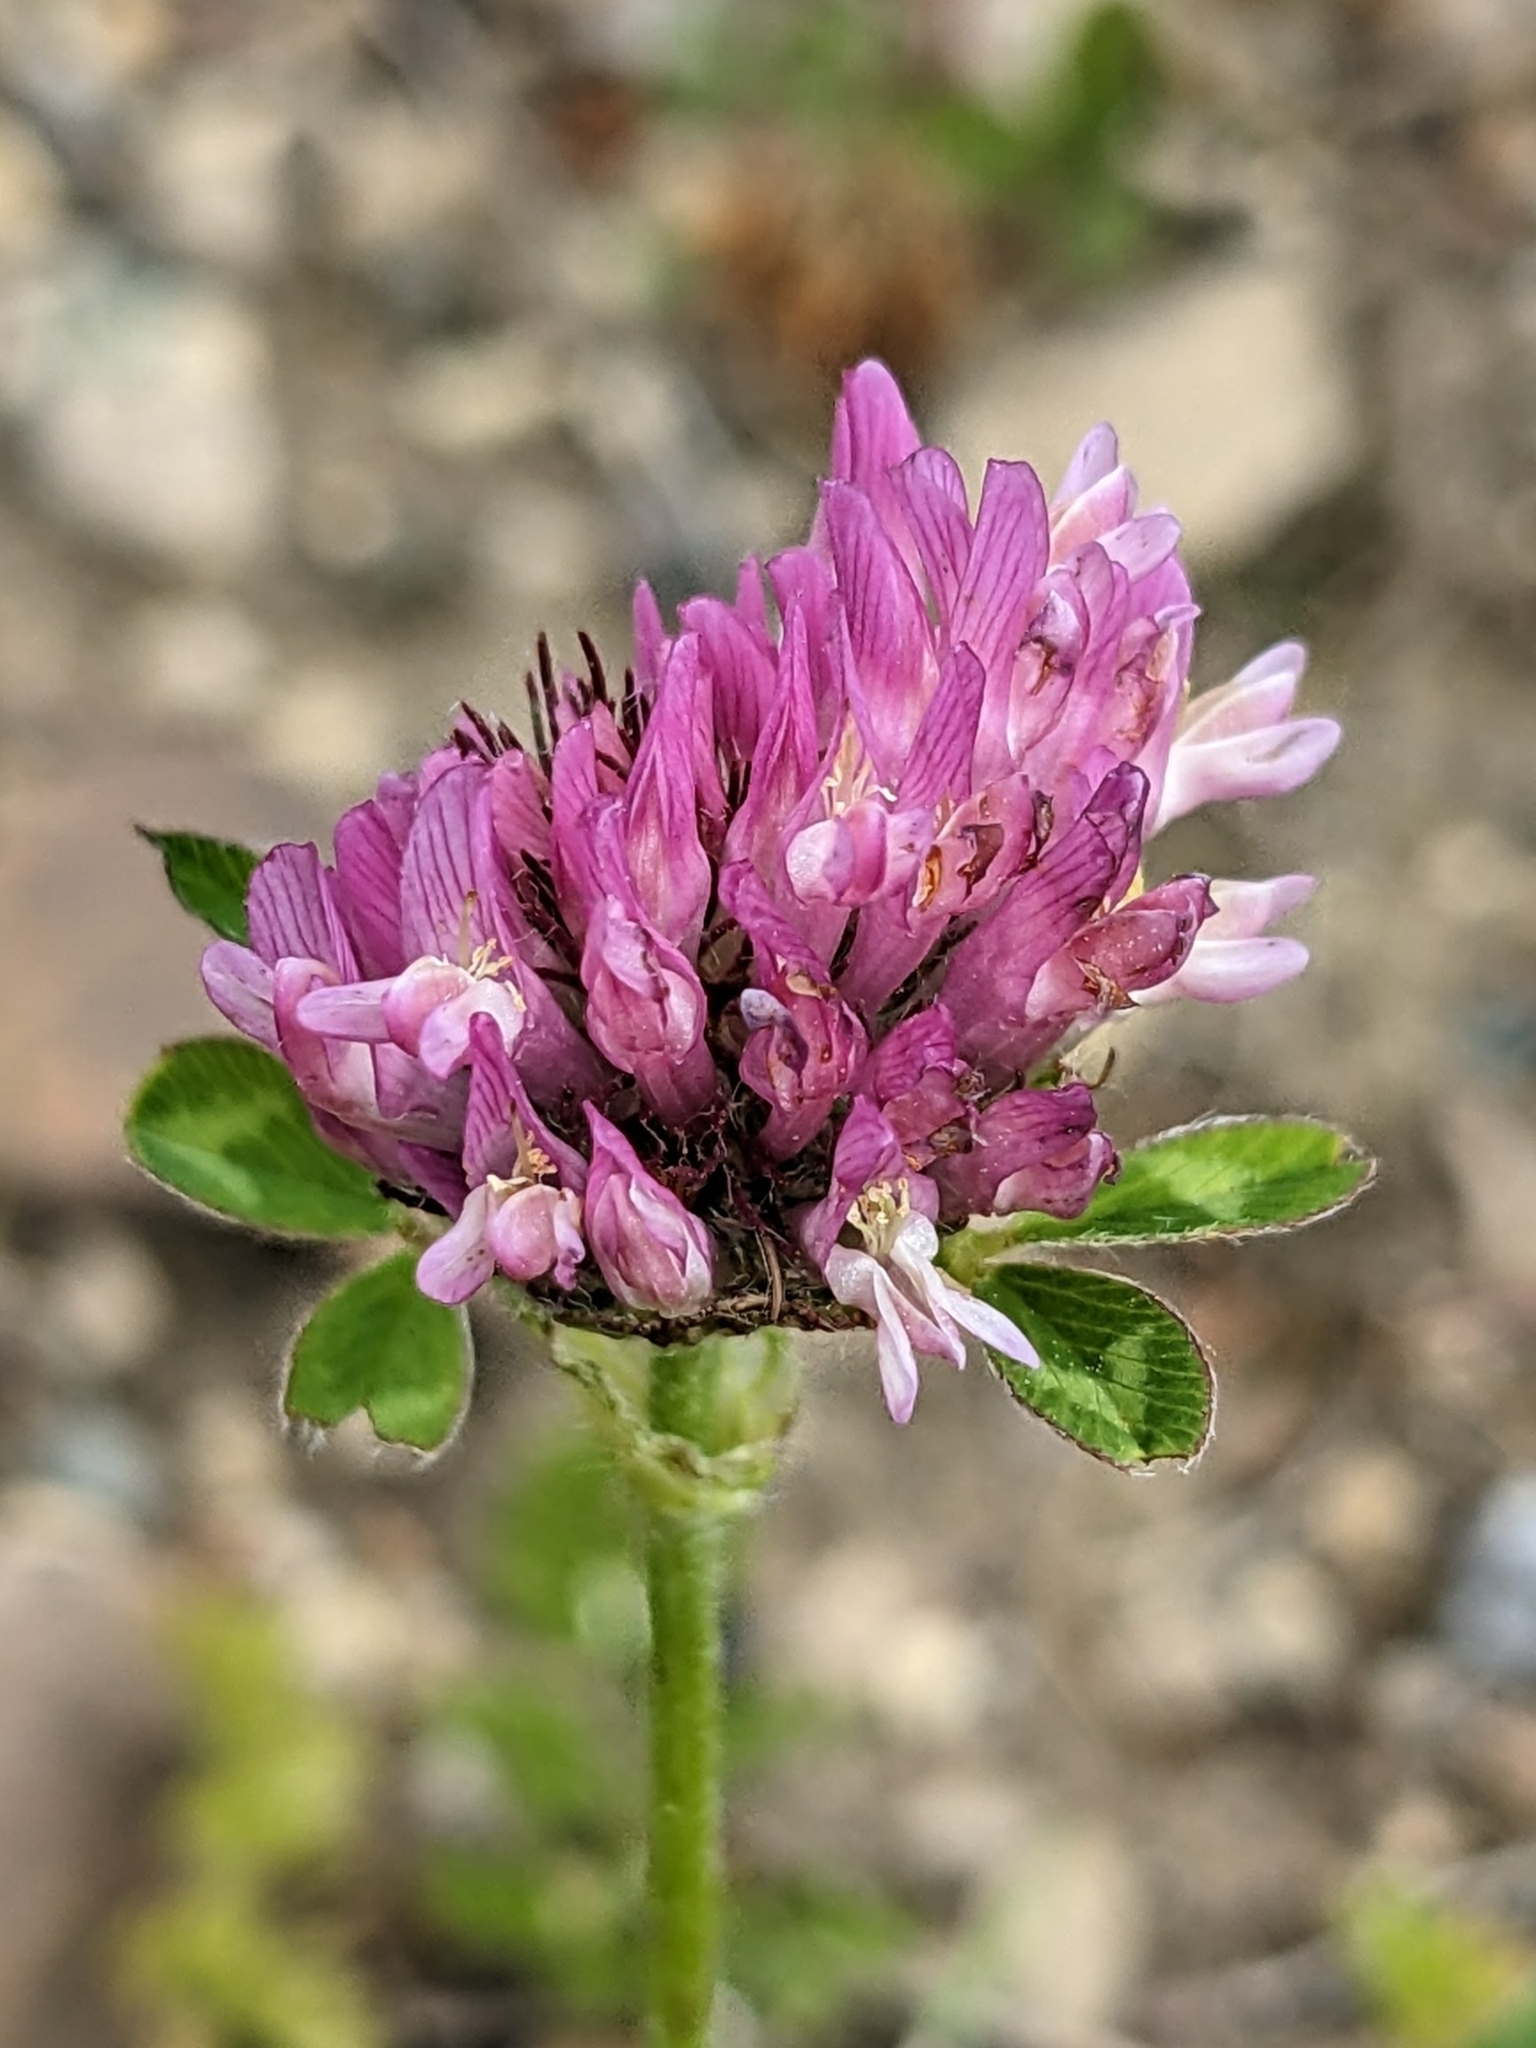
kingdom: Plantae
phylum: Tracheophyta
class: Magnoliopsida
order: Fabales
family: Fabaceae
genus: Trifolium
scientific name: Trifolium pratense
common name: Red clover
